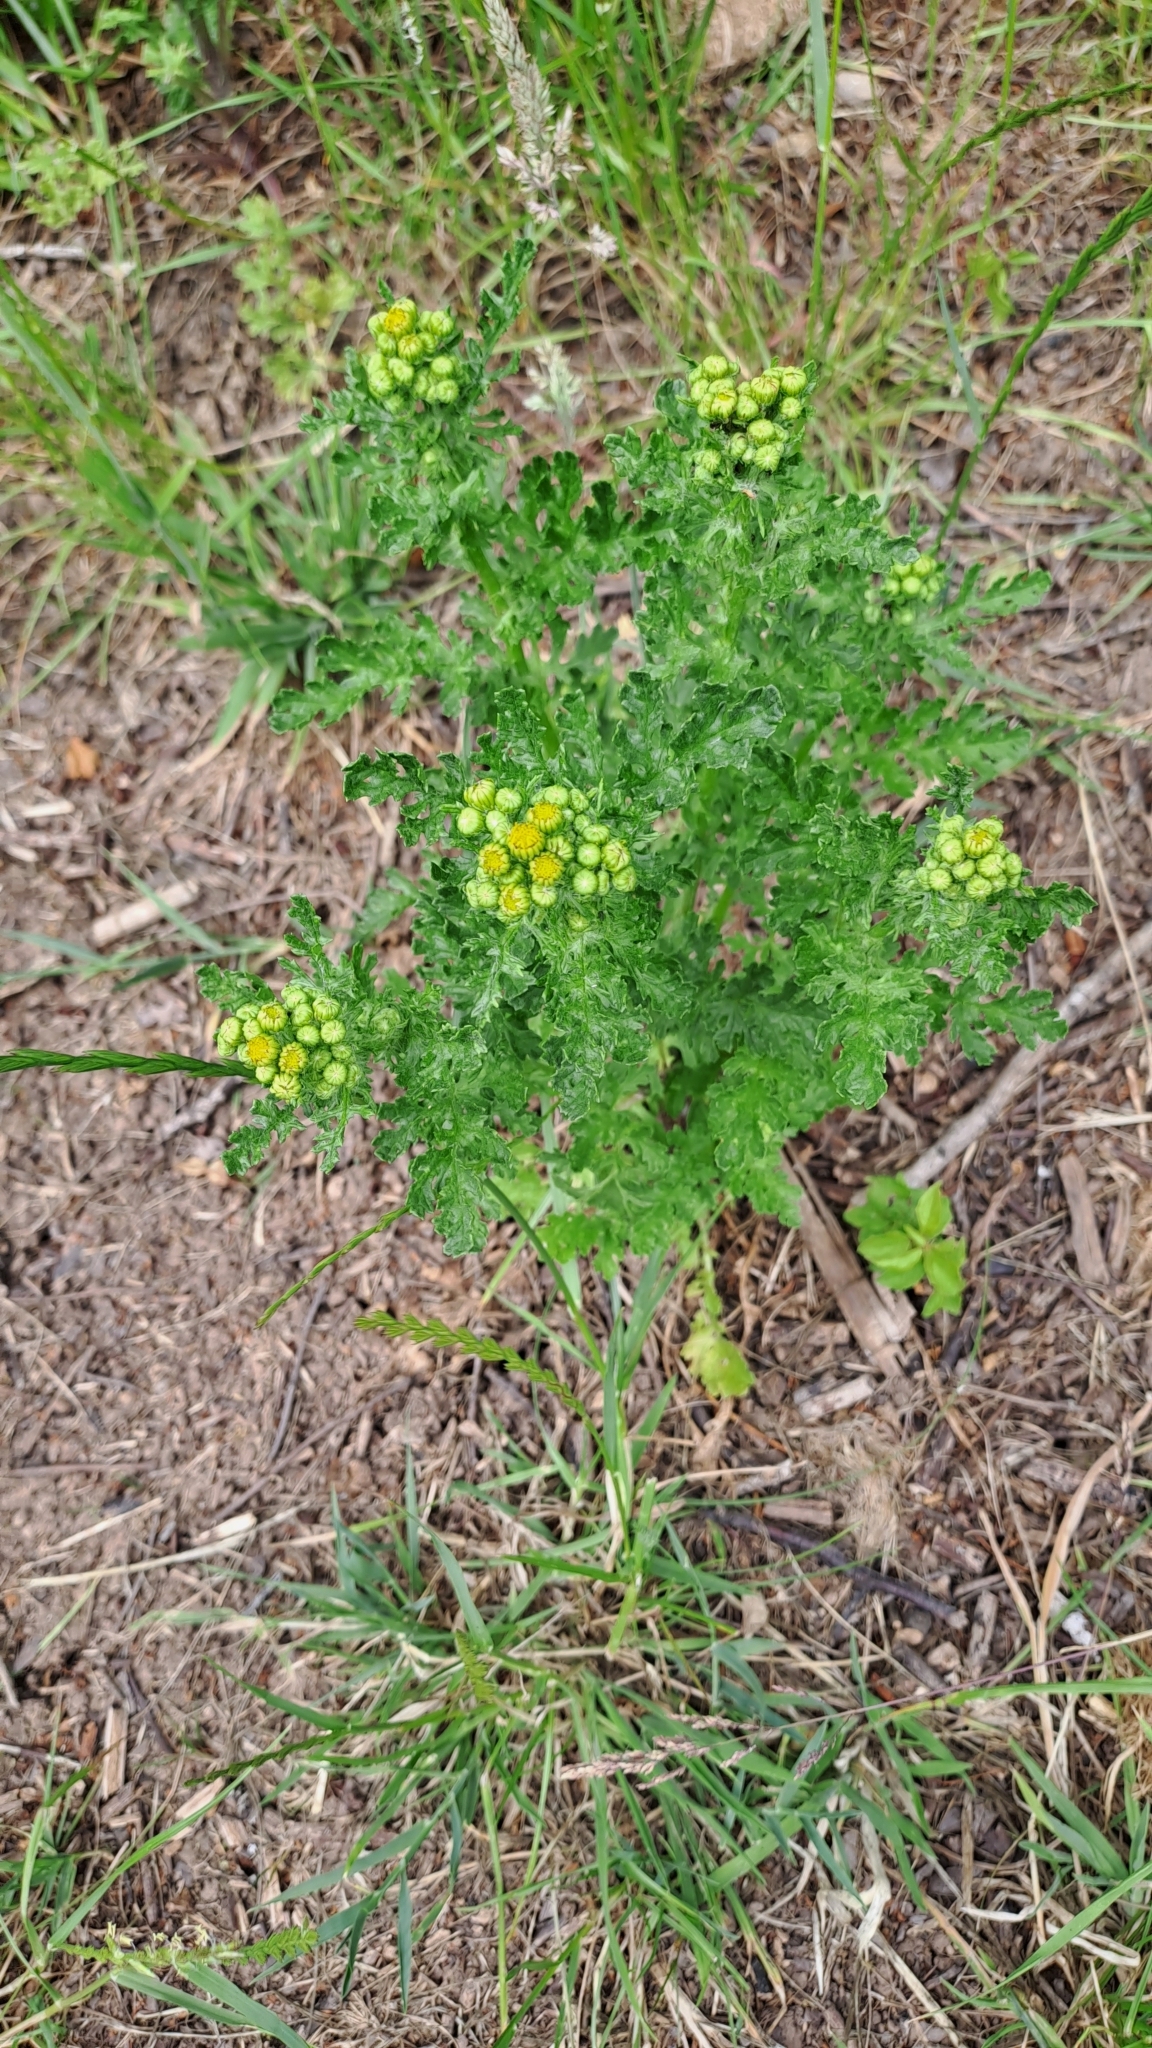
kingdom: Plantae
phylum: Tracheophyta
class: Magnoliopsida
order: Asterales
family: Asteraceae
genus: Jacobaea
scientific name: Jacobaea vulgaris
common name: Stinking willie
